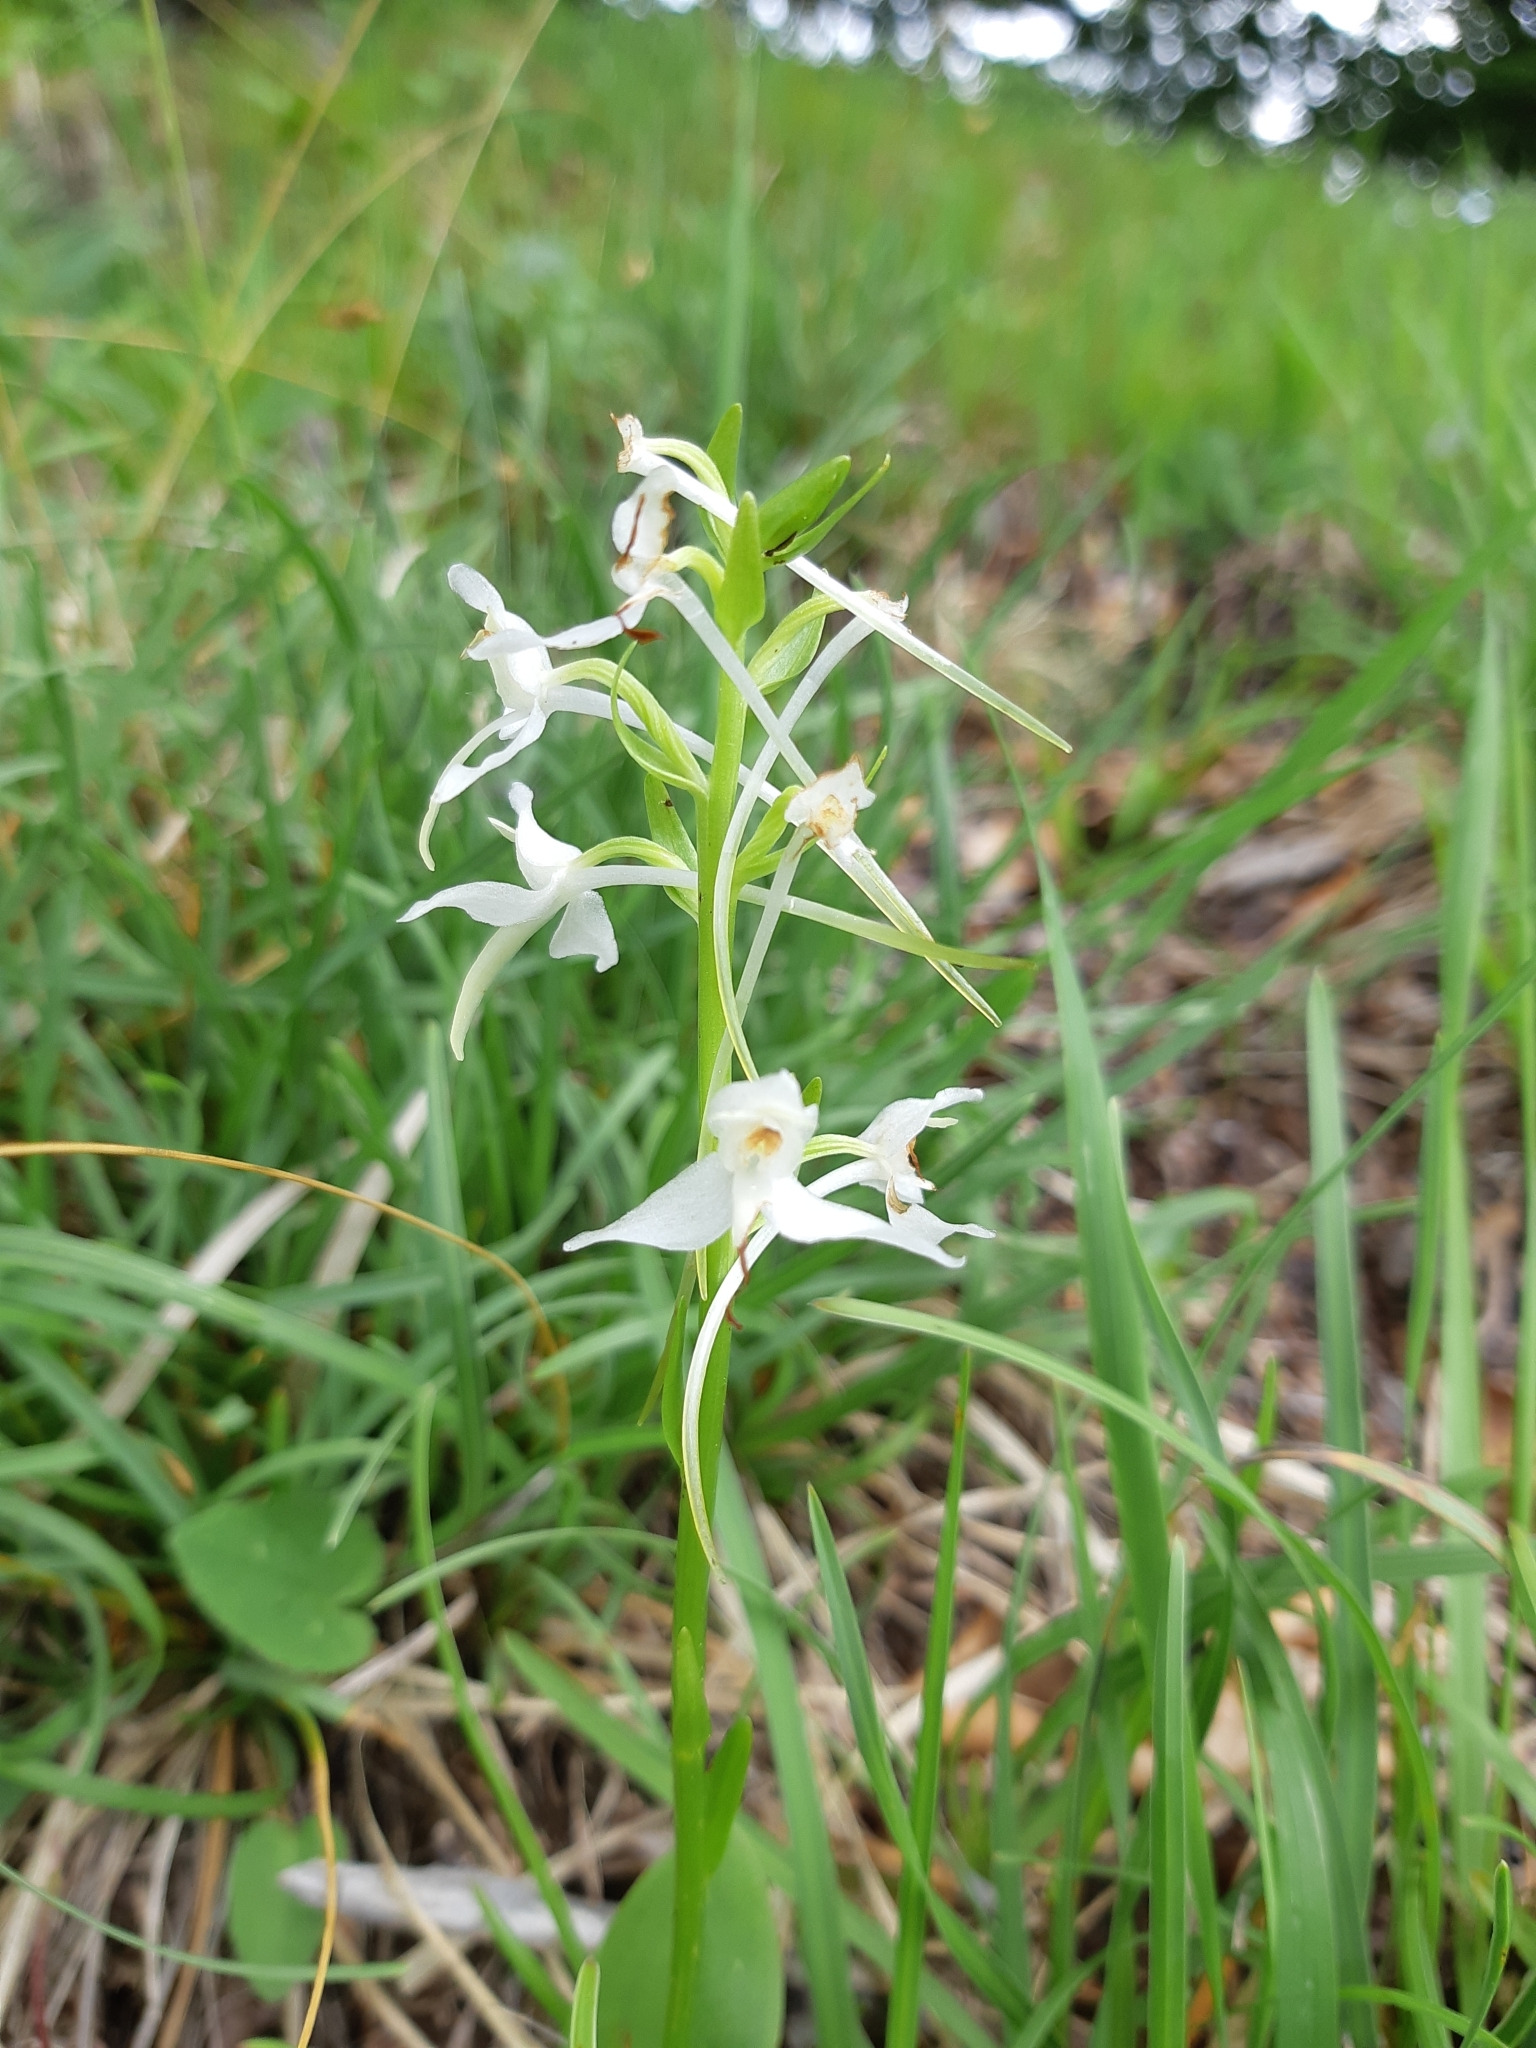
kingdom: Plantae
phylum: Tracheophyta
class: Liliopsida
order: Asparagales
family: Orchidaceae
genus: Platanthera
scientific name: Platanthera bifolia
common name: Lesser butterfly-orchid
